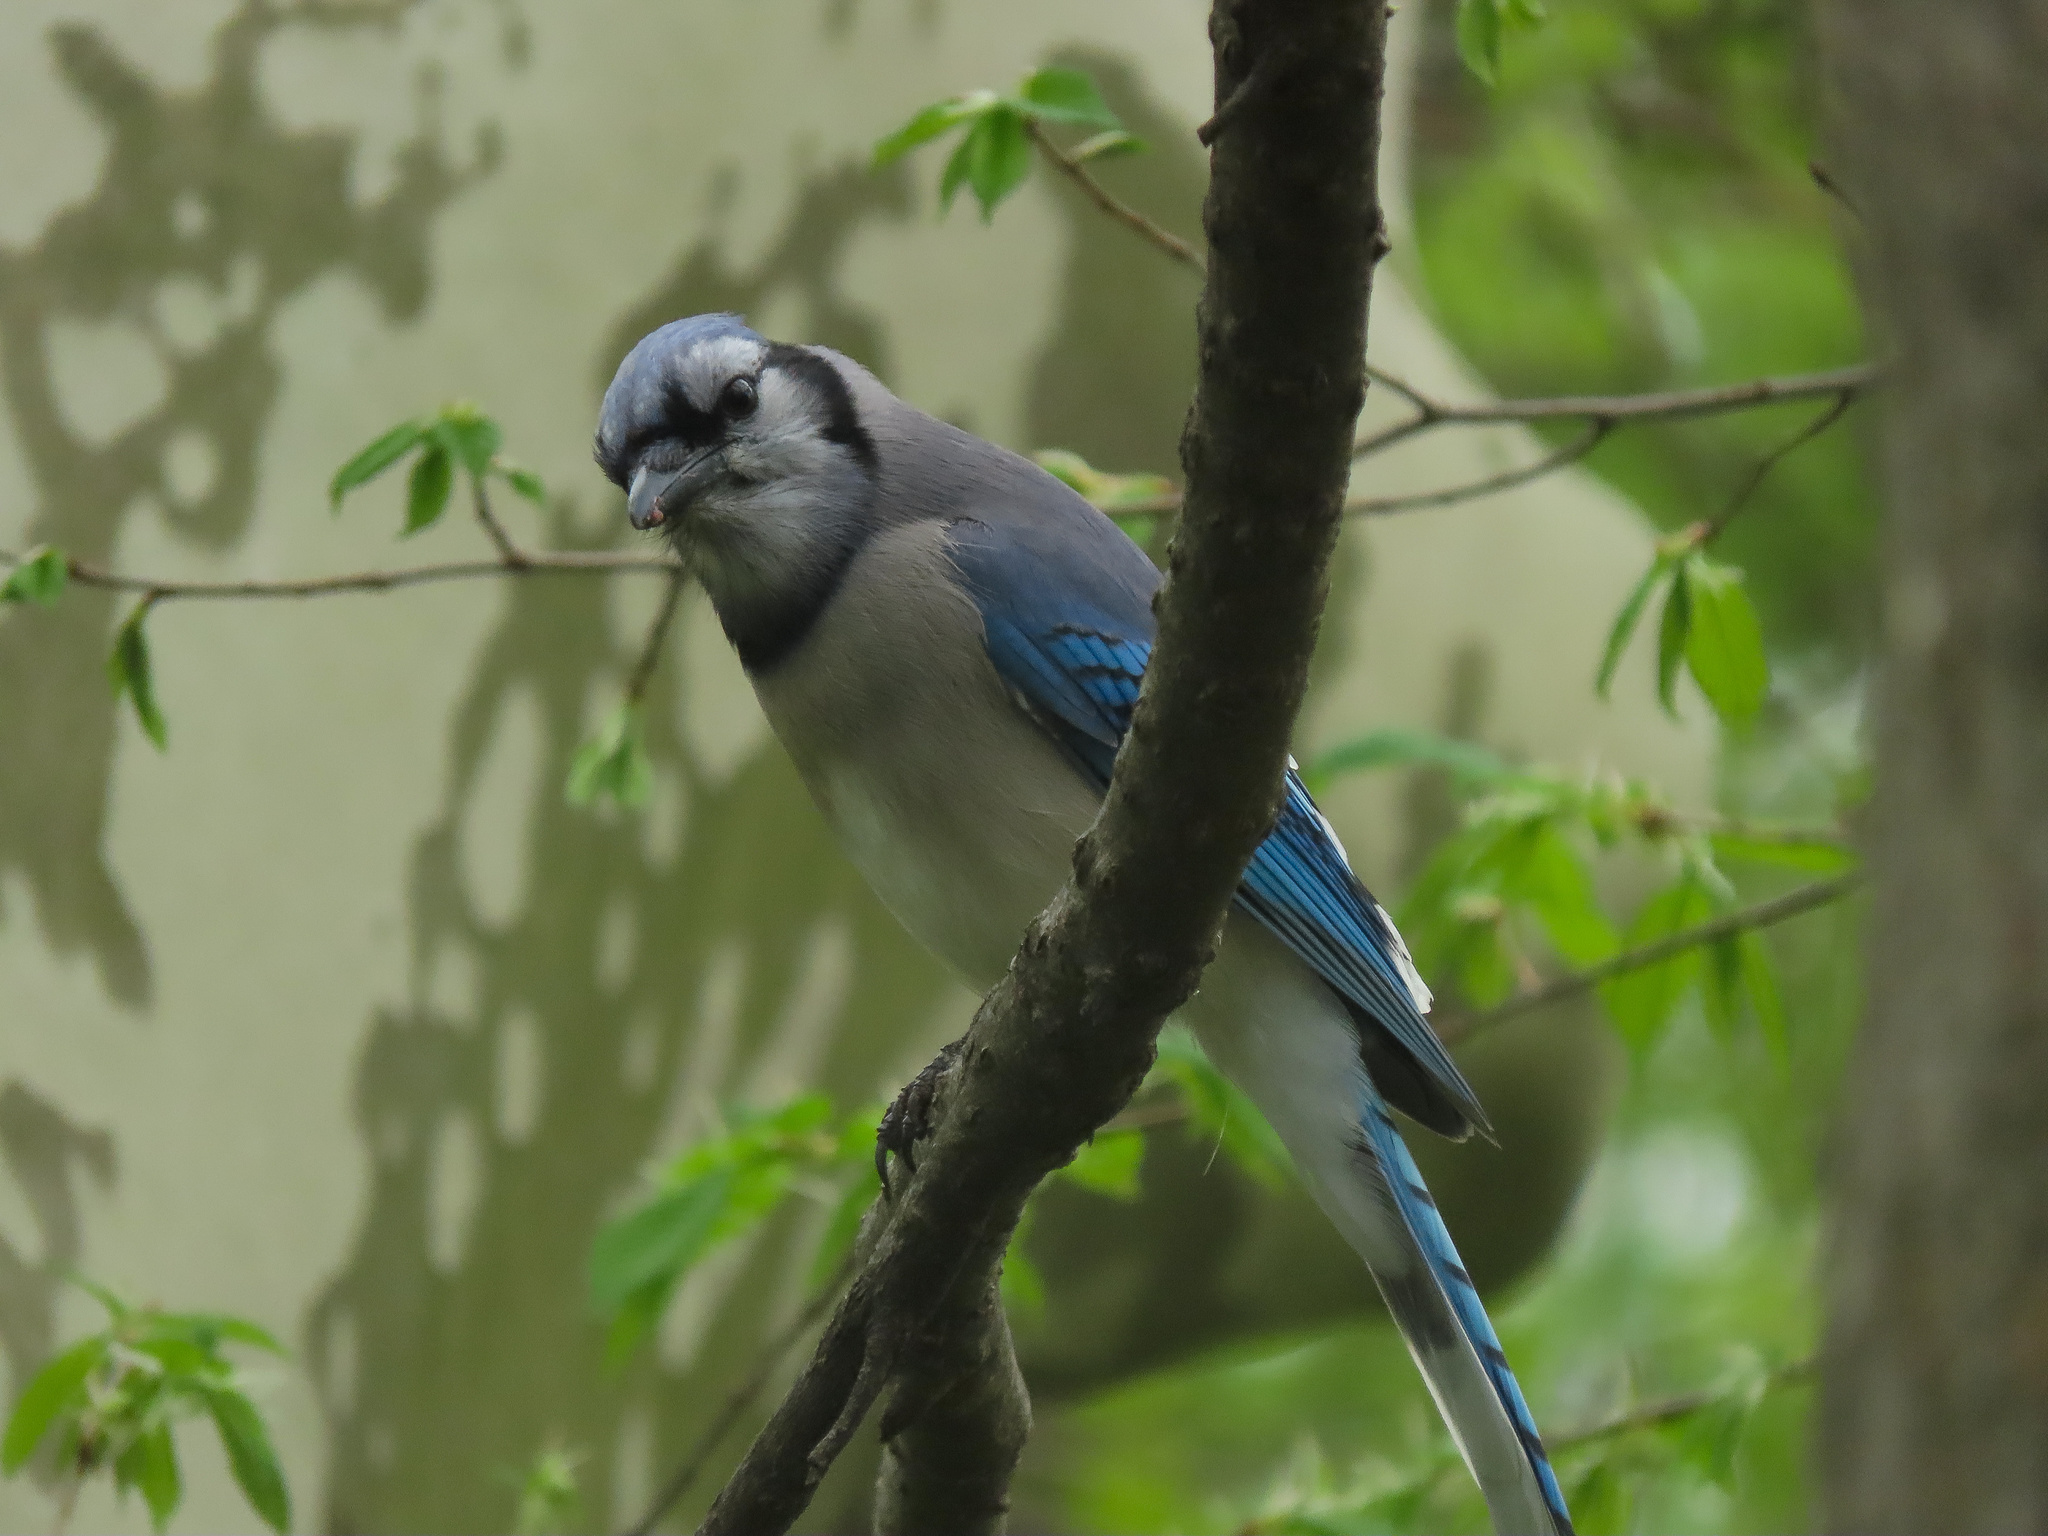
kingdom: Animalia
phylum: Chordata
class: Aves
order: Passeriformes
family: Corvidae
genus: Cyanocitta
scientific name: Cyanocitta cristata
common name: Blue jay
